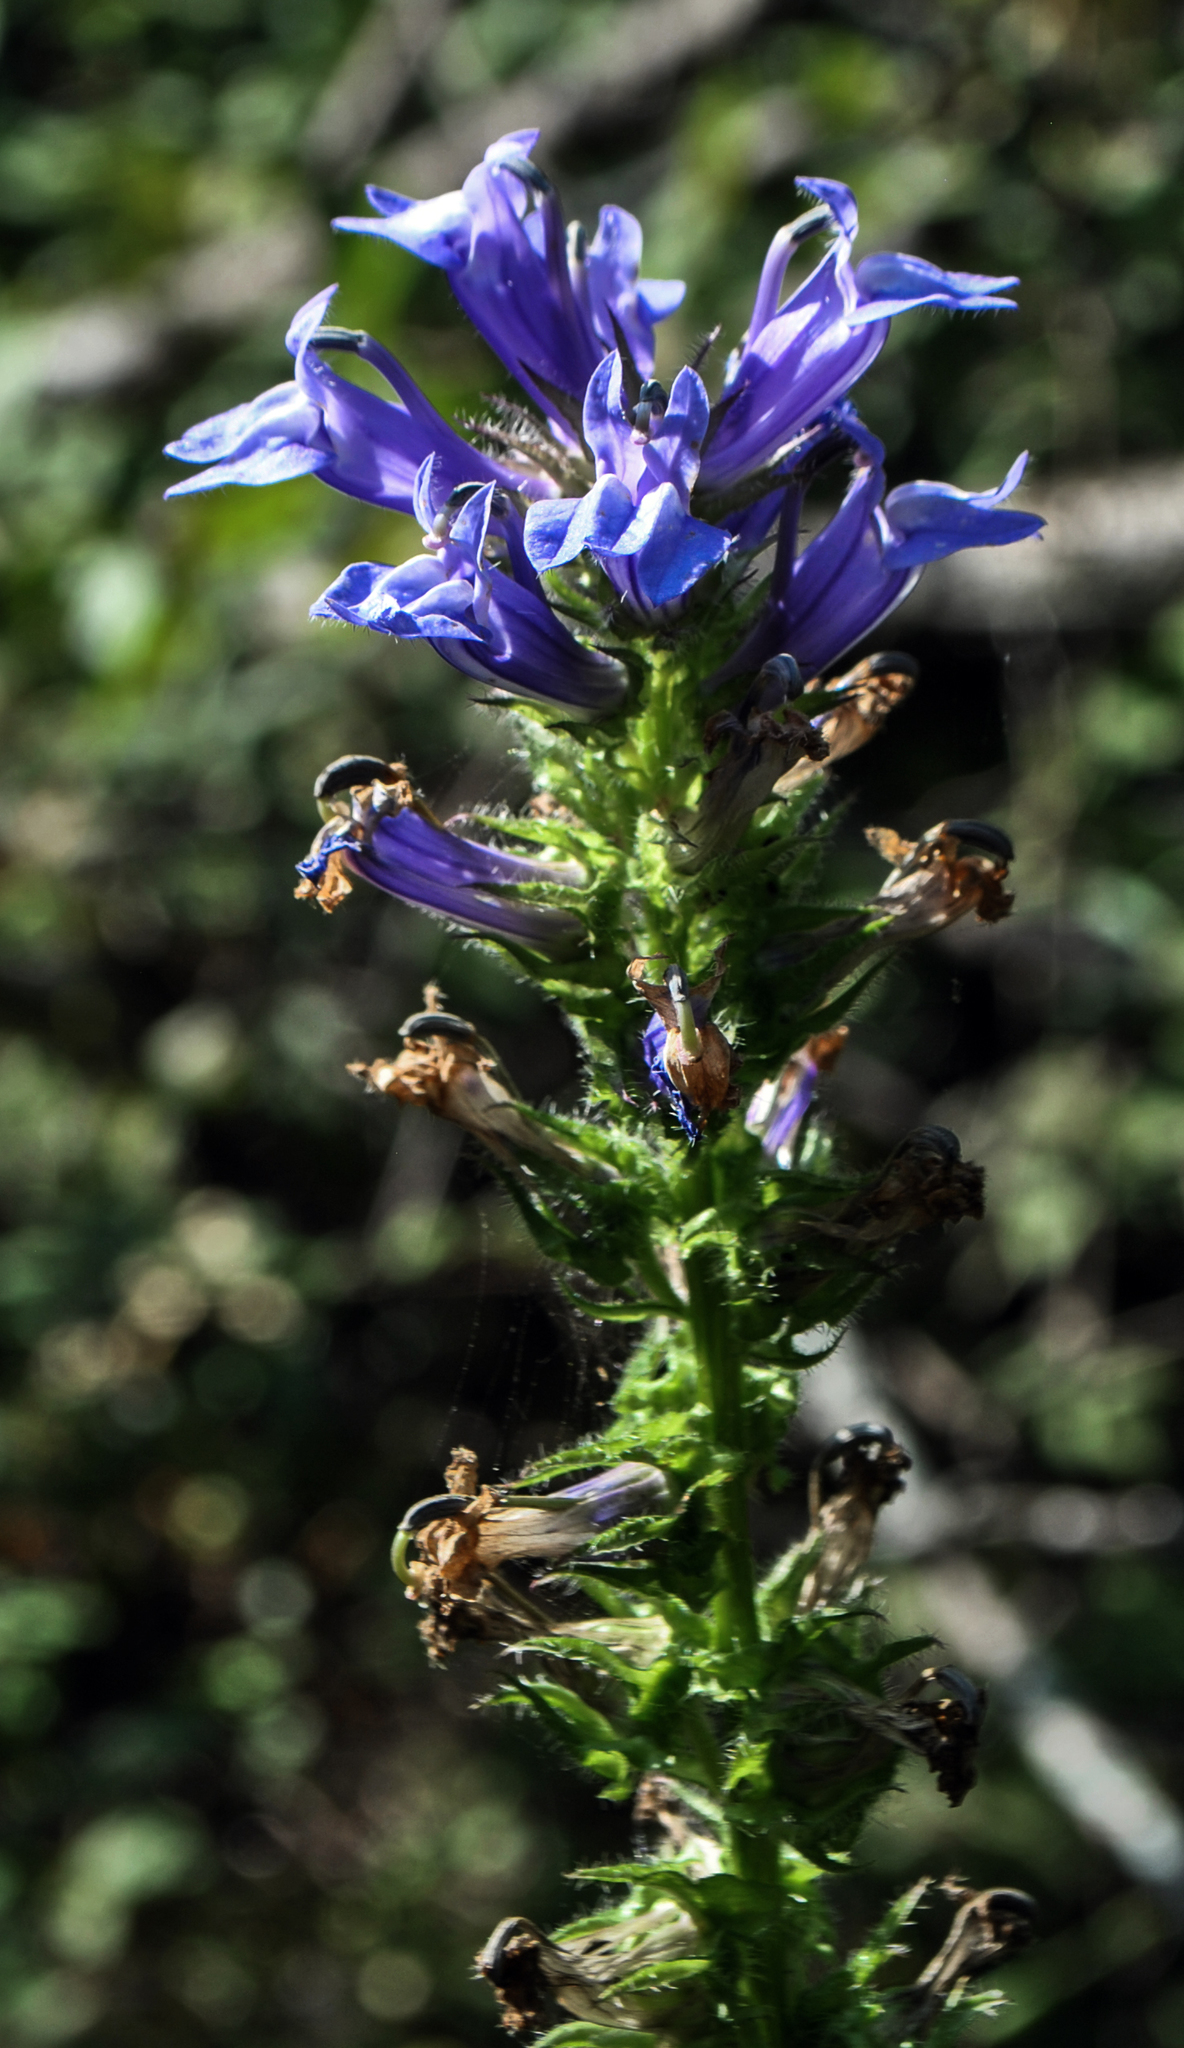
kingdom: Plantae
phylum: Tracheophyta
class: Magnoliopsida
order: Asterales
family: Campanulaceae
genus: Lobelia
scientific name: Lobelia siphilitica
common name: Great lobelia
